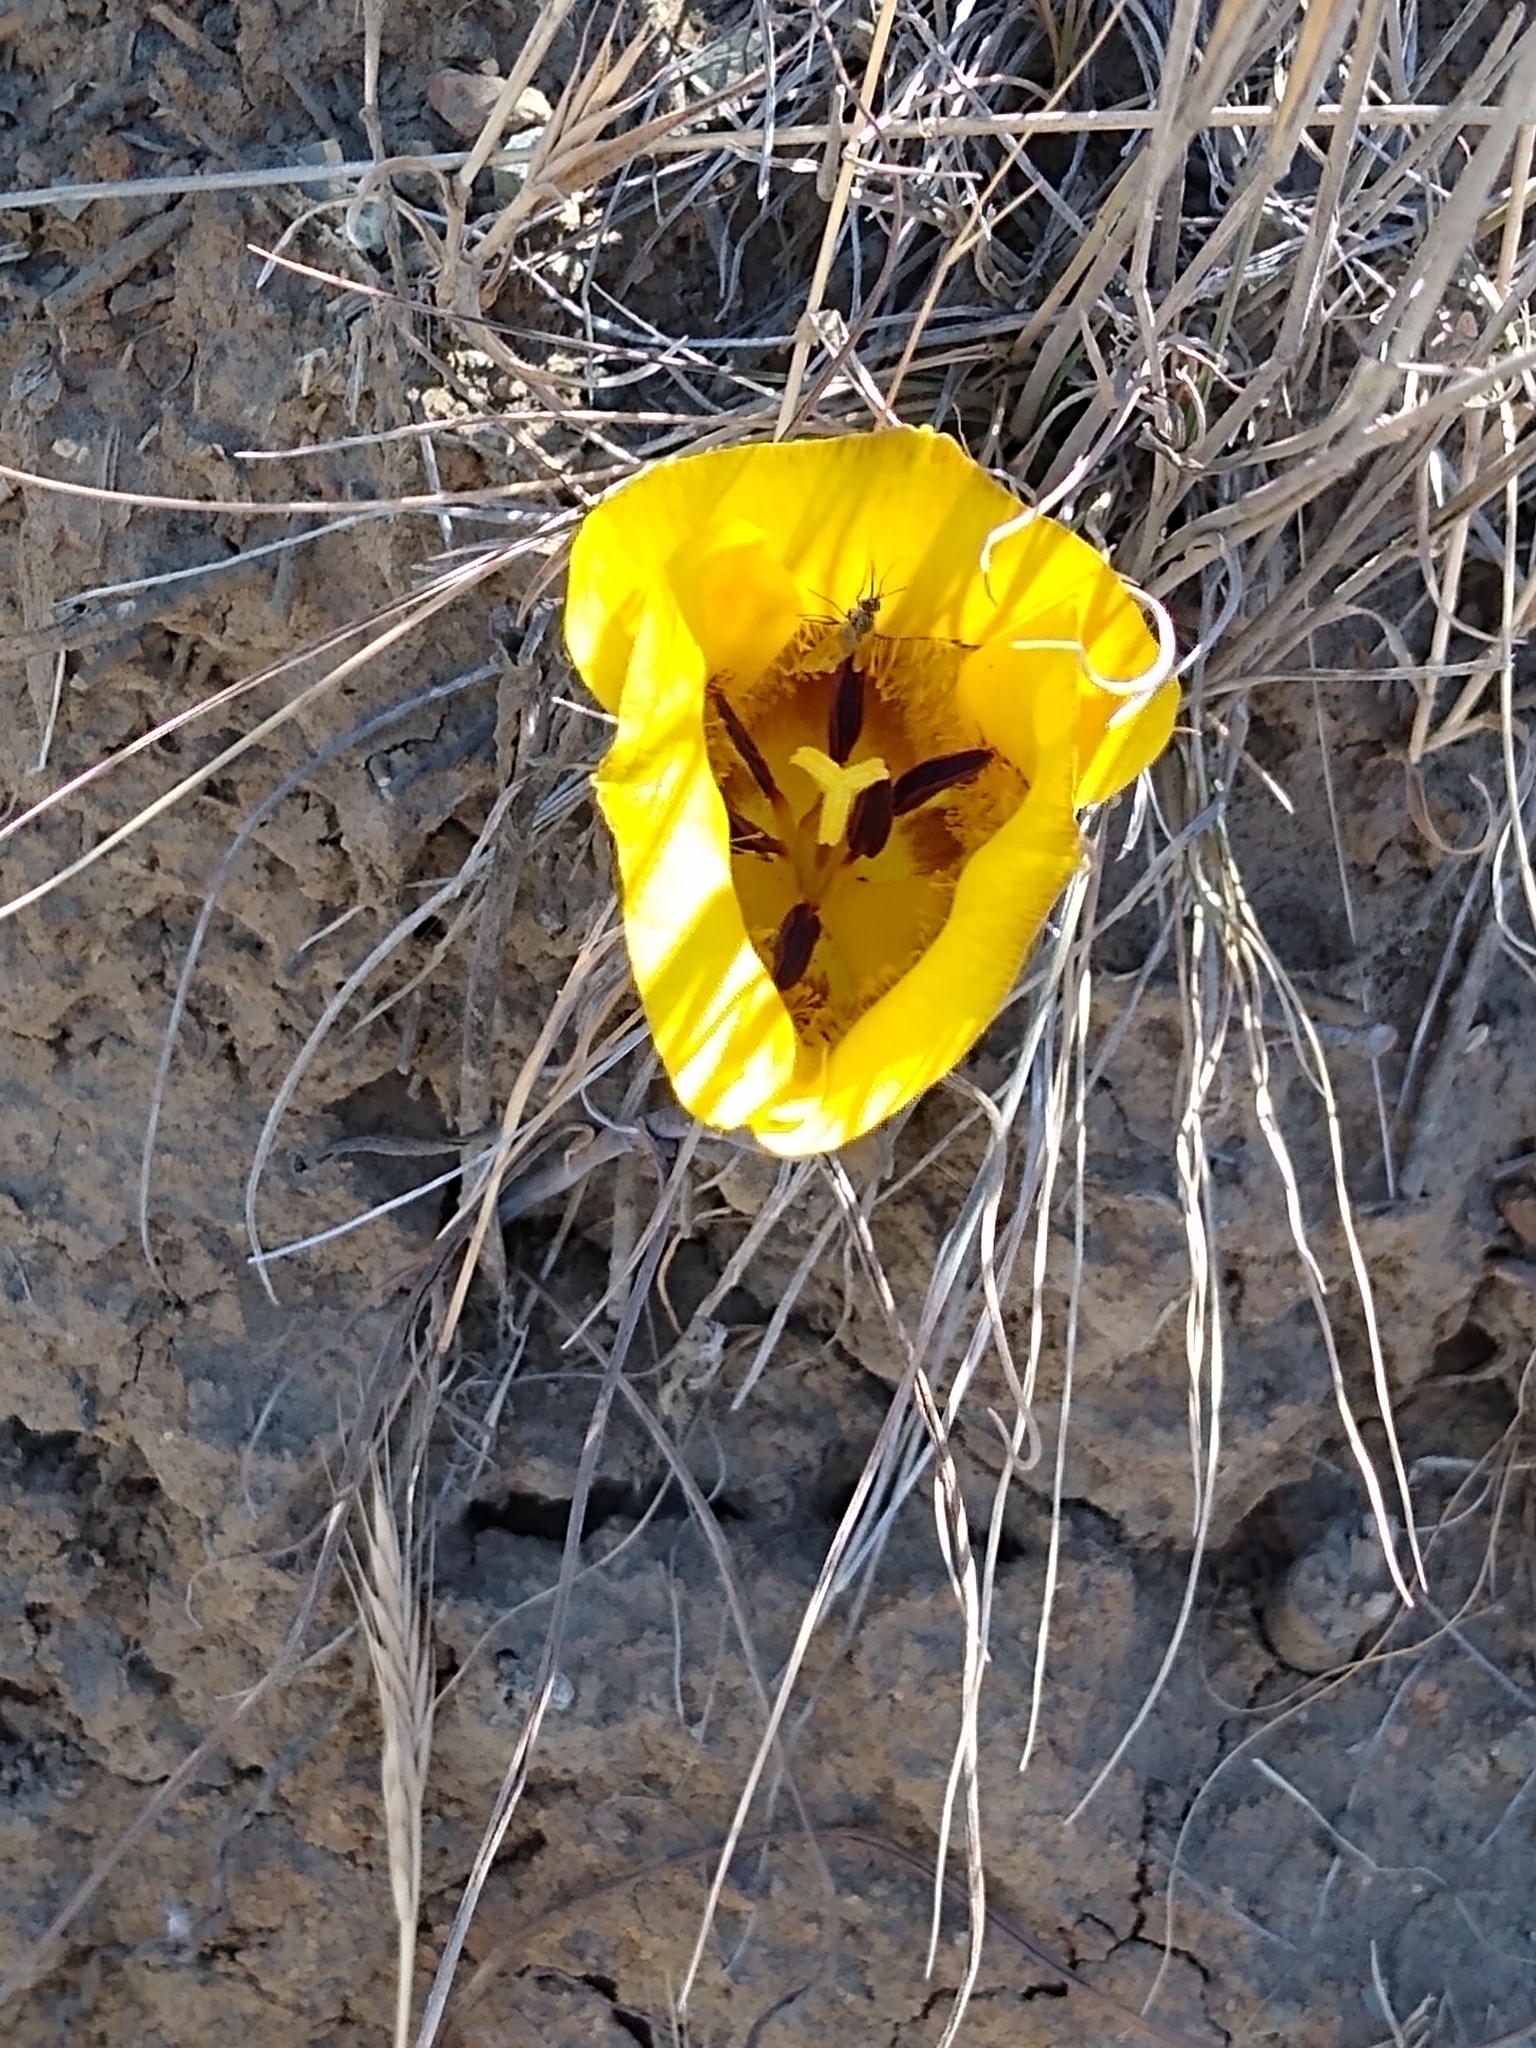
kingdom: Plantae
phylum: Tracheophyta
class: Liliopsida
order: Liliales
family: Liliaceae
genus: Calochortus
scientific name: Calochortus clavatus
